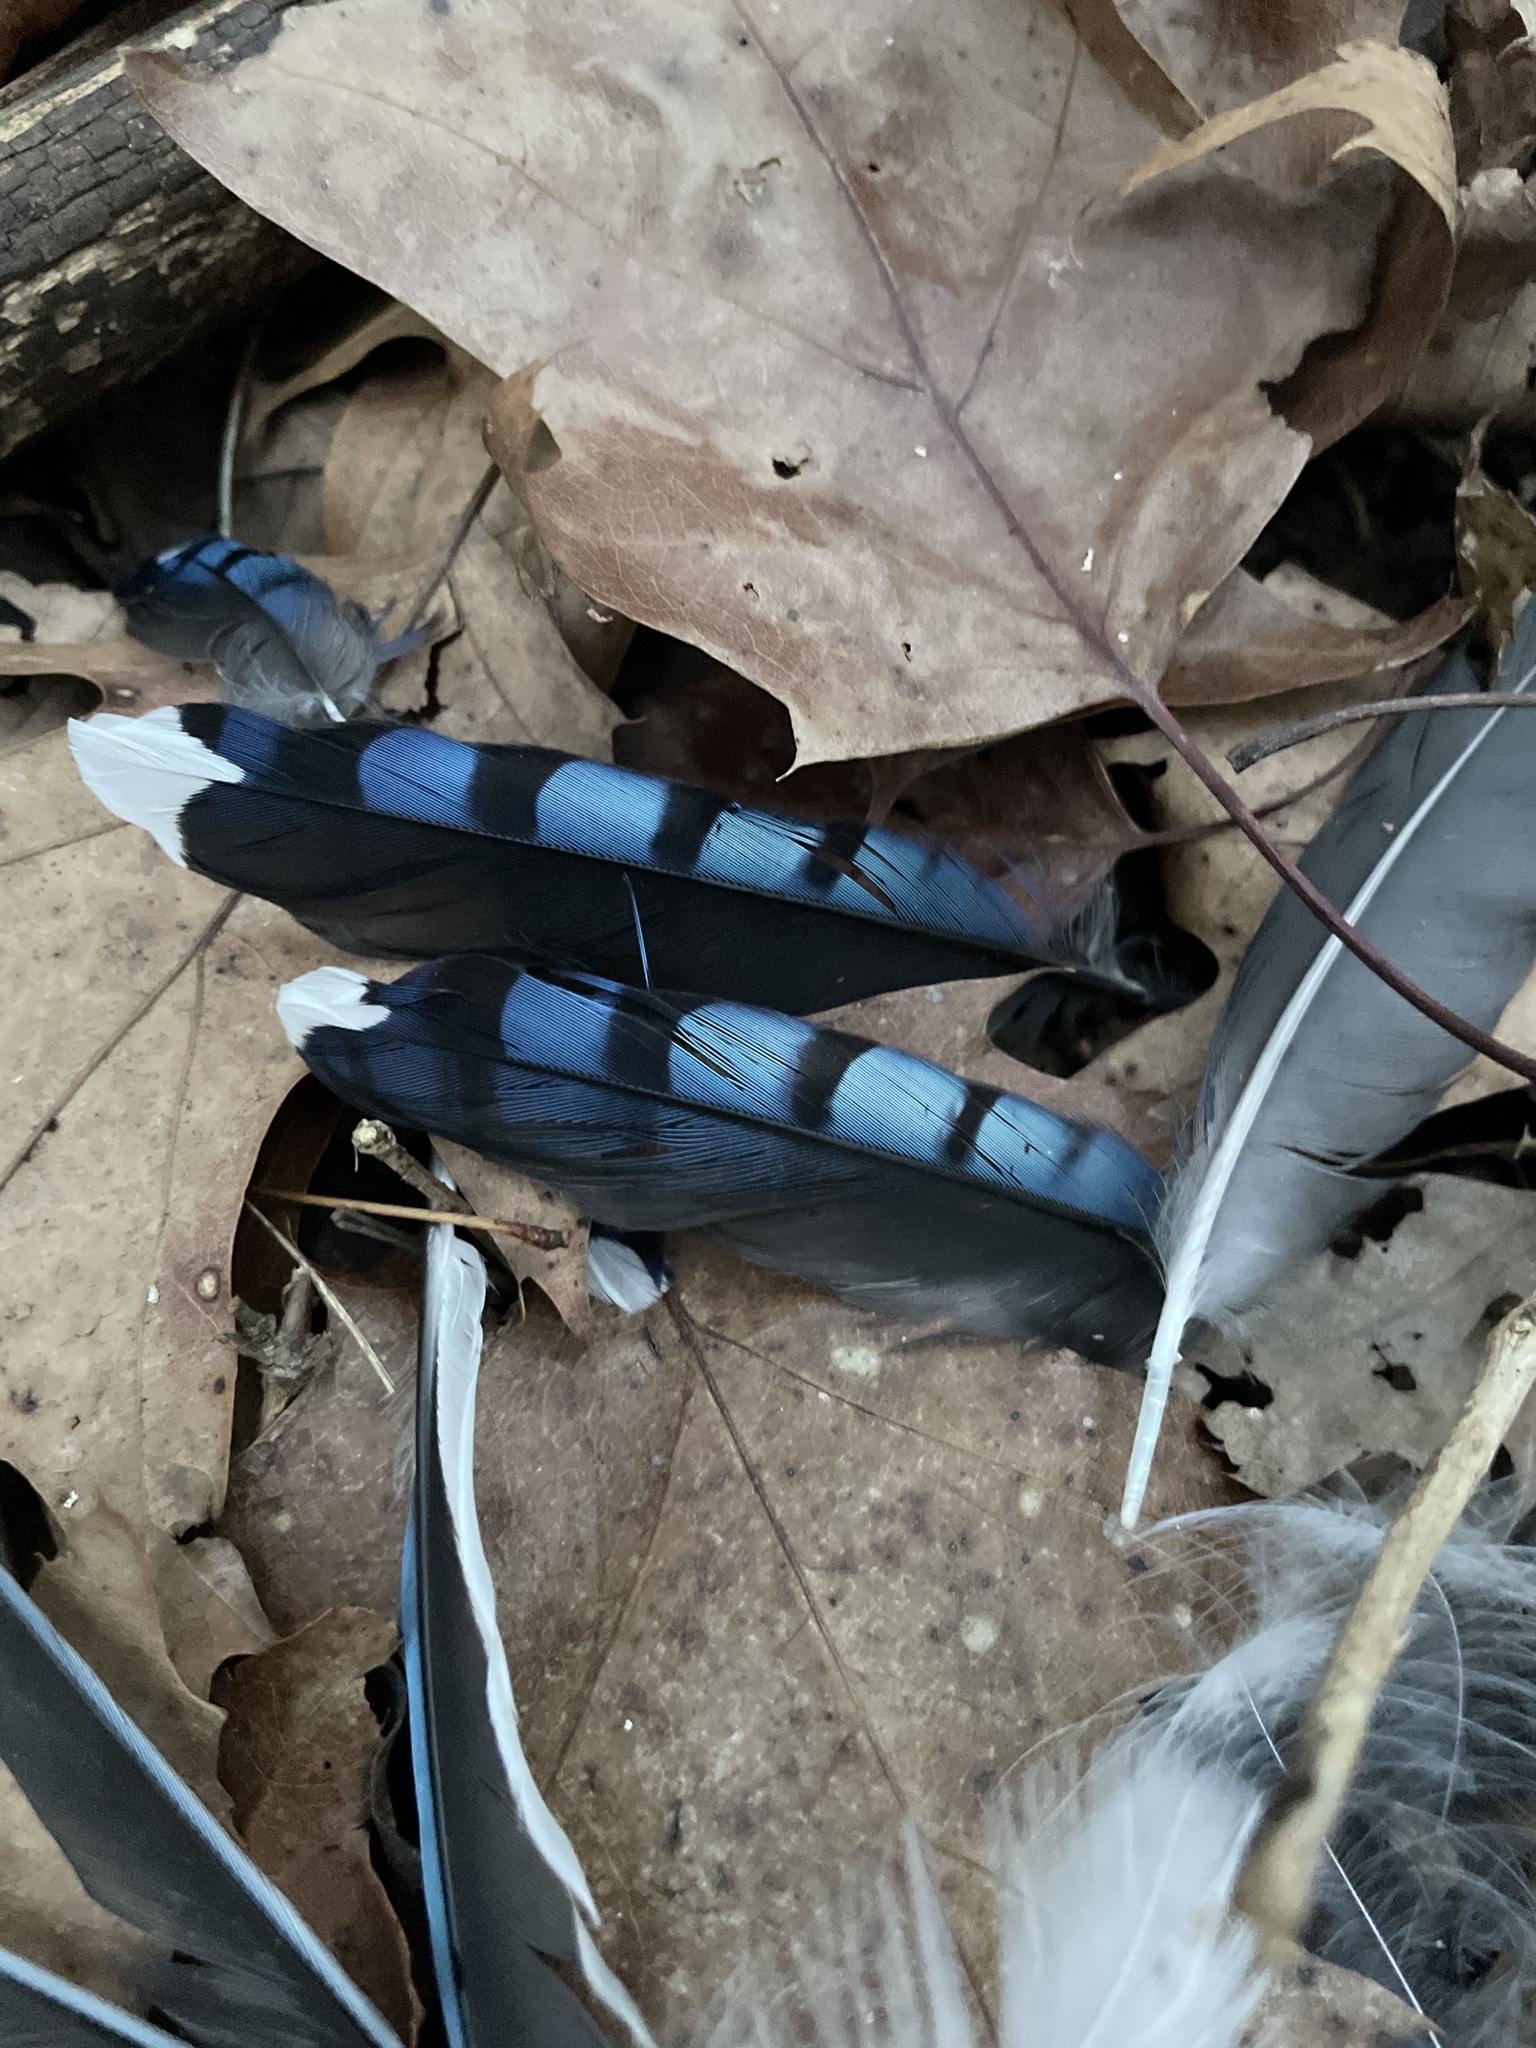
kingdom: Animalia
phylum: Chordata
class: Aves
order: Passeriformes
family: Corvidae
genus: Cyanocitta
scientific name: Cyanocitta cristata
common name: Blue jay
